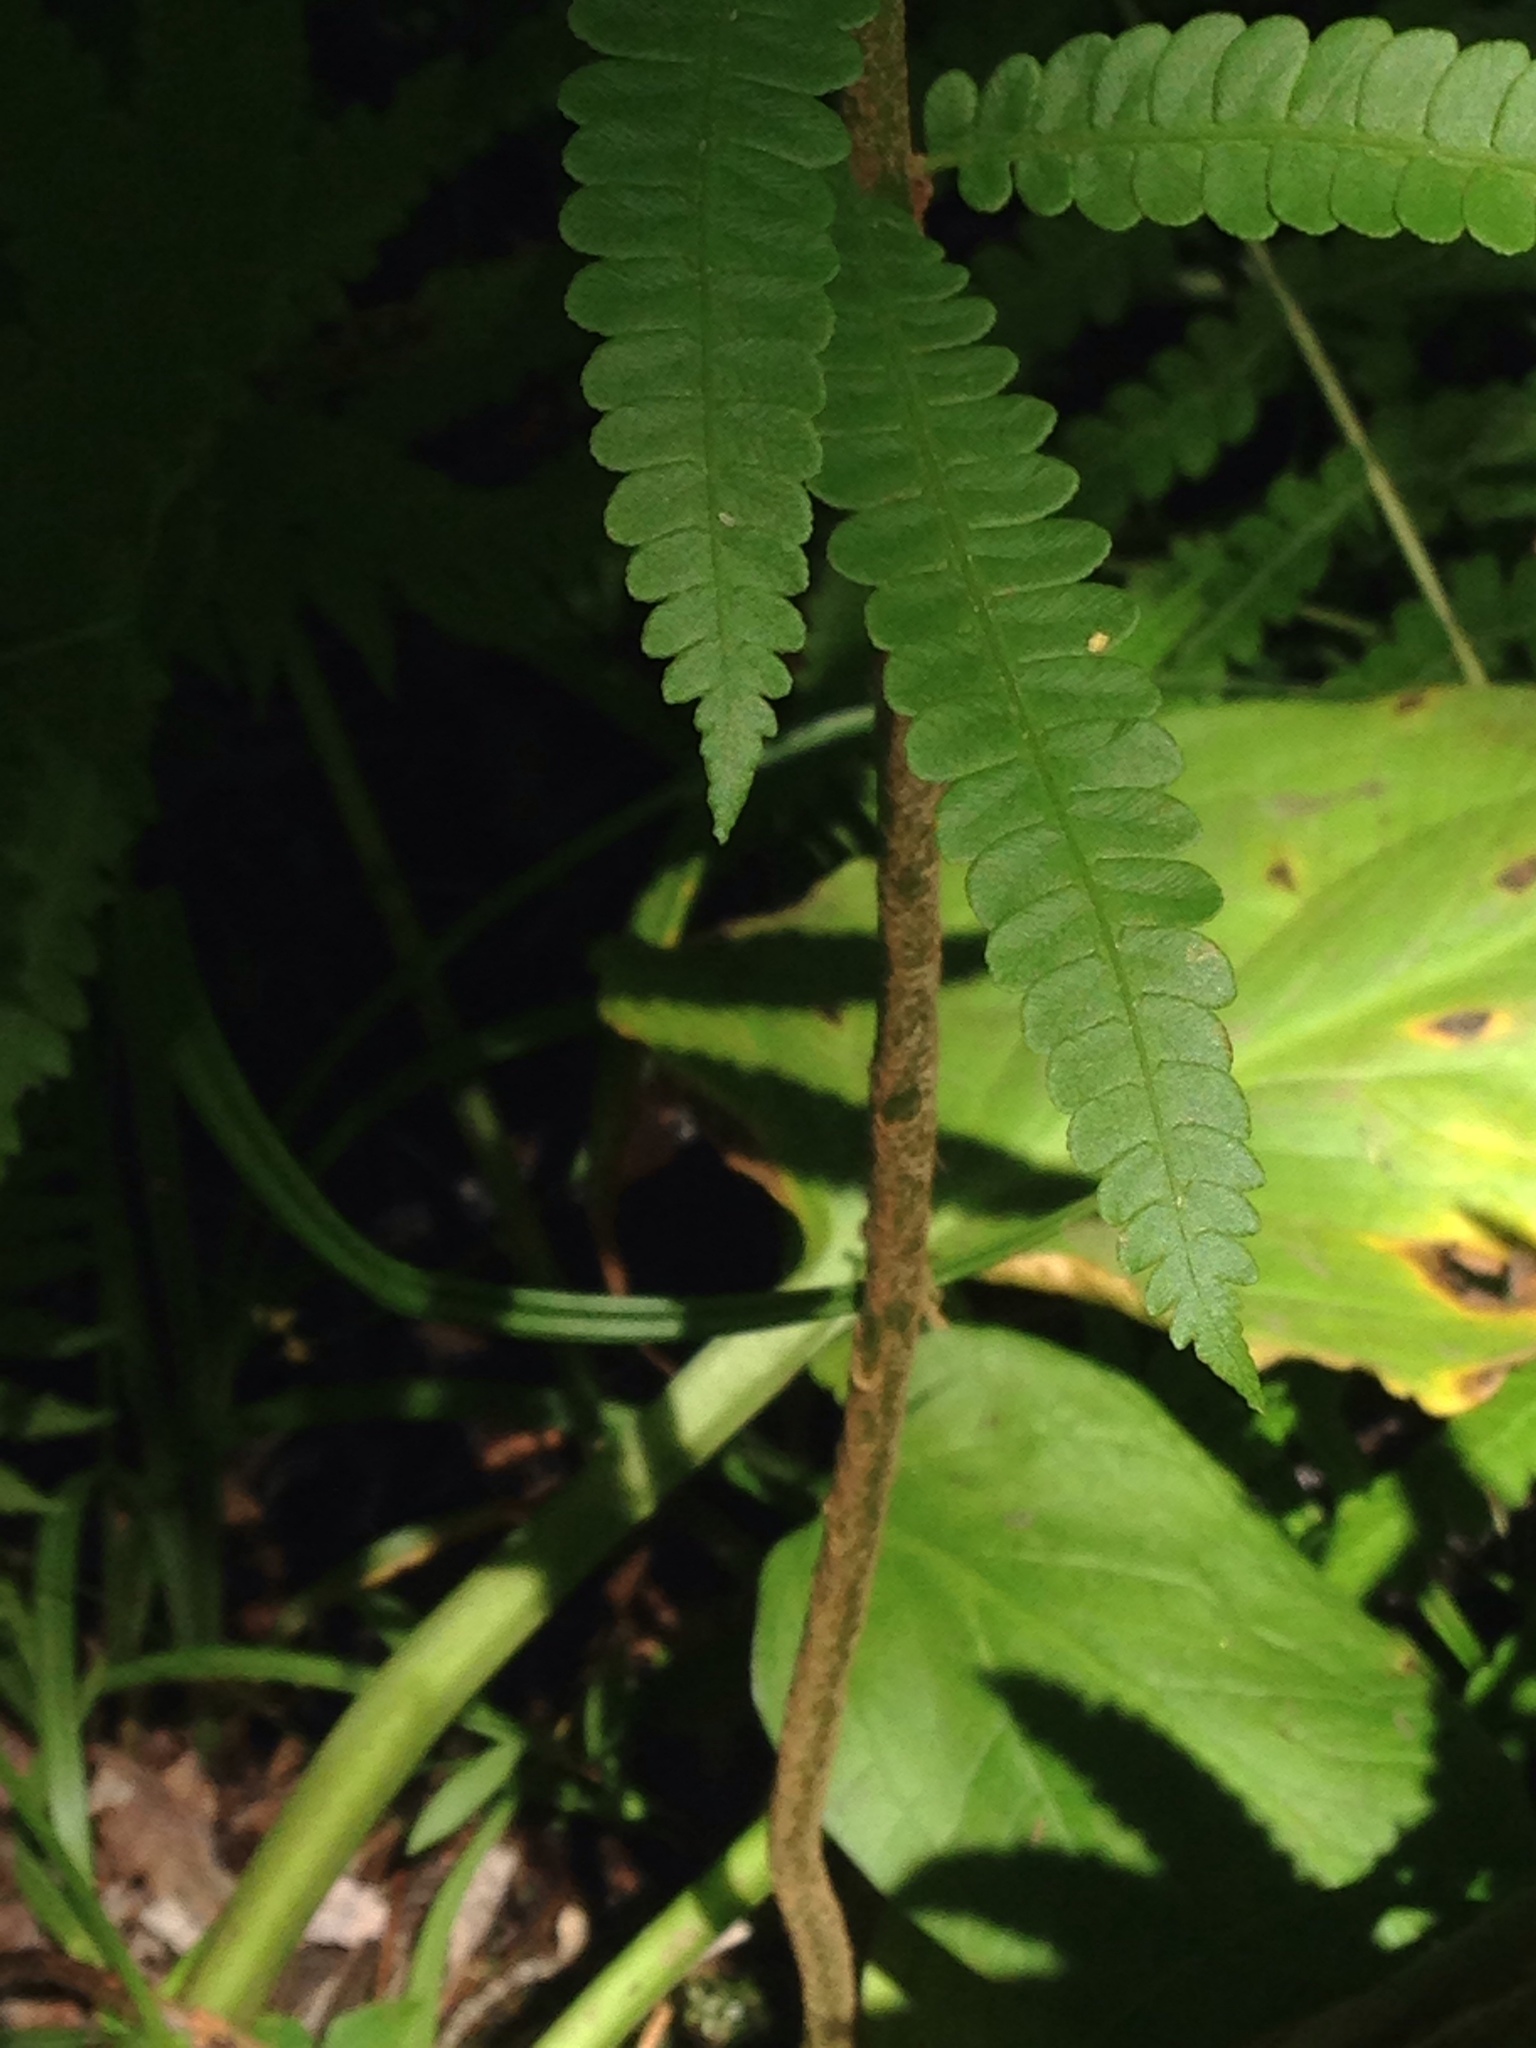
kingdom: Plantae
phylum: Tracheophyta
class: Polypodiopsida
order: Osmundales
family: Osmundaceae
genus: Osmundastrum
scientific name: Osmundastrum cinnamomeum
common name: Cinnamon fern
